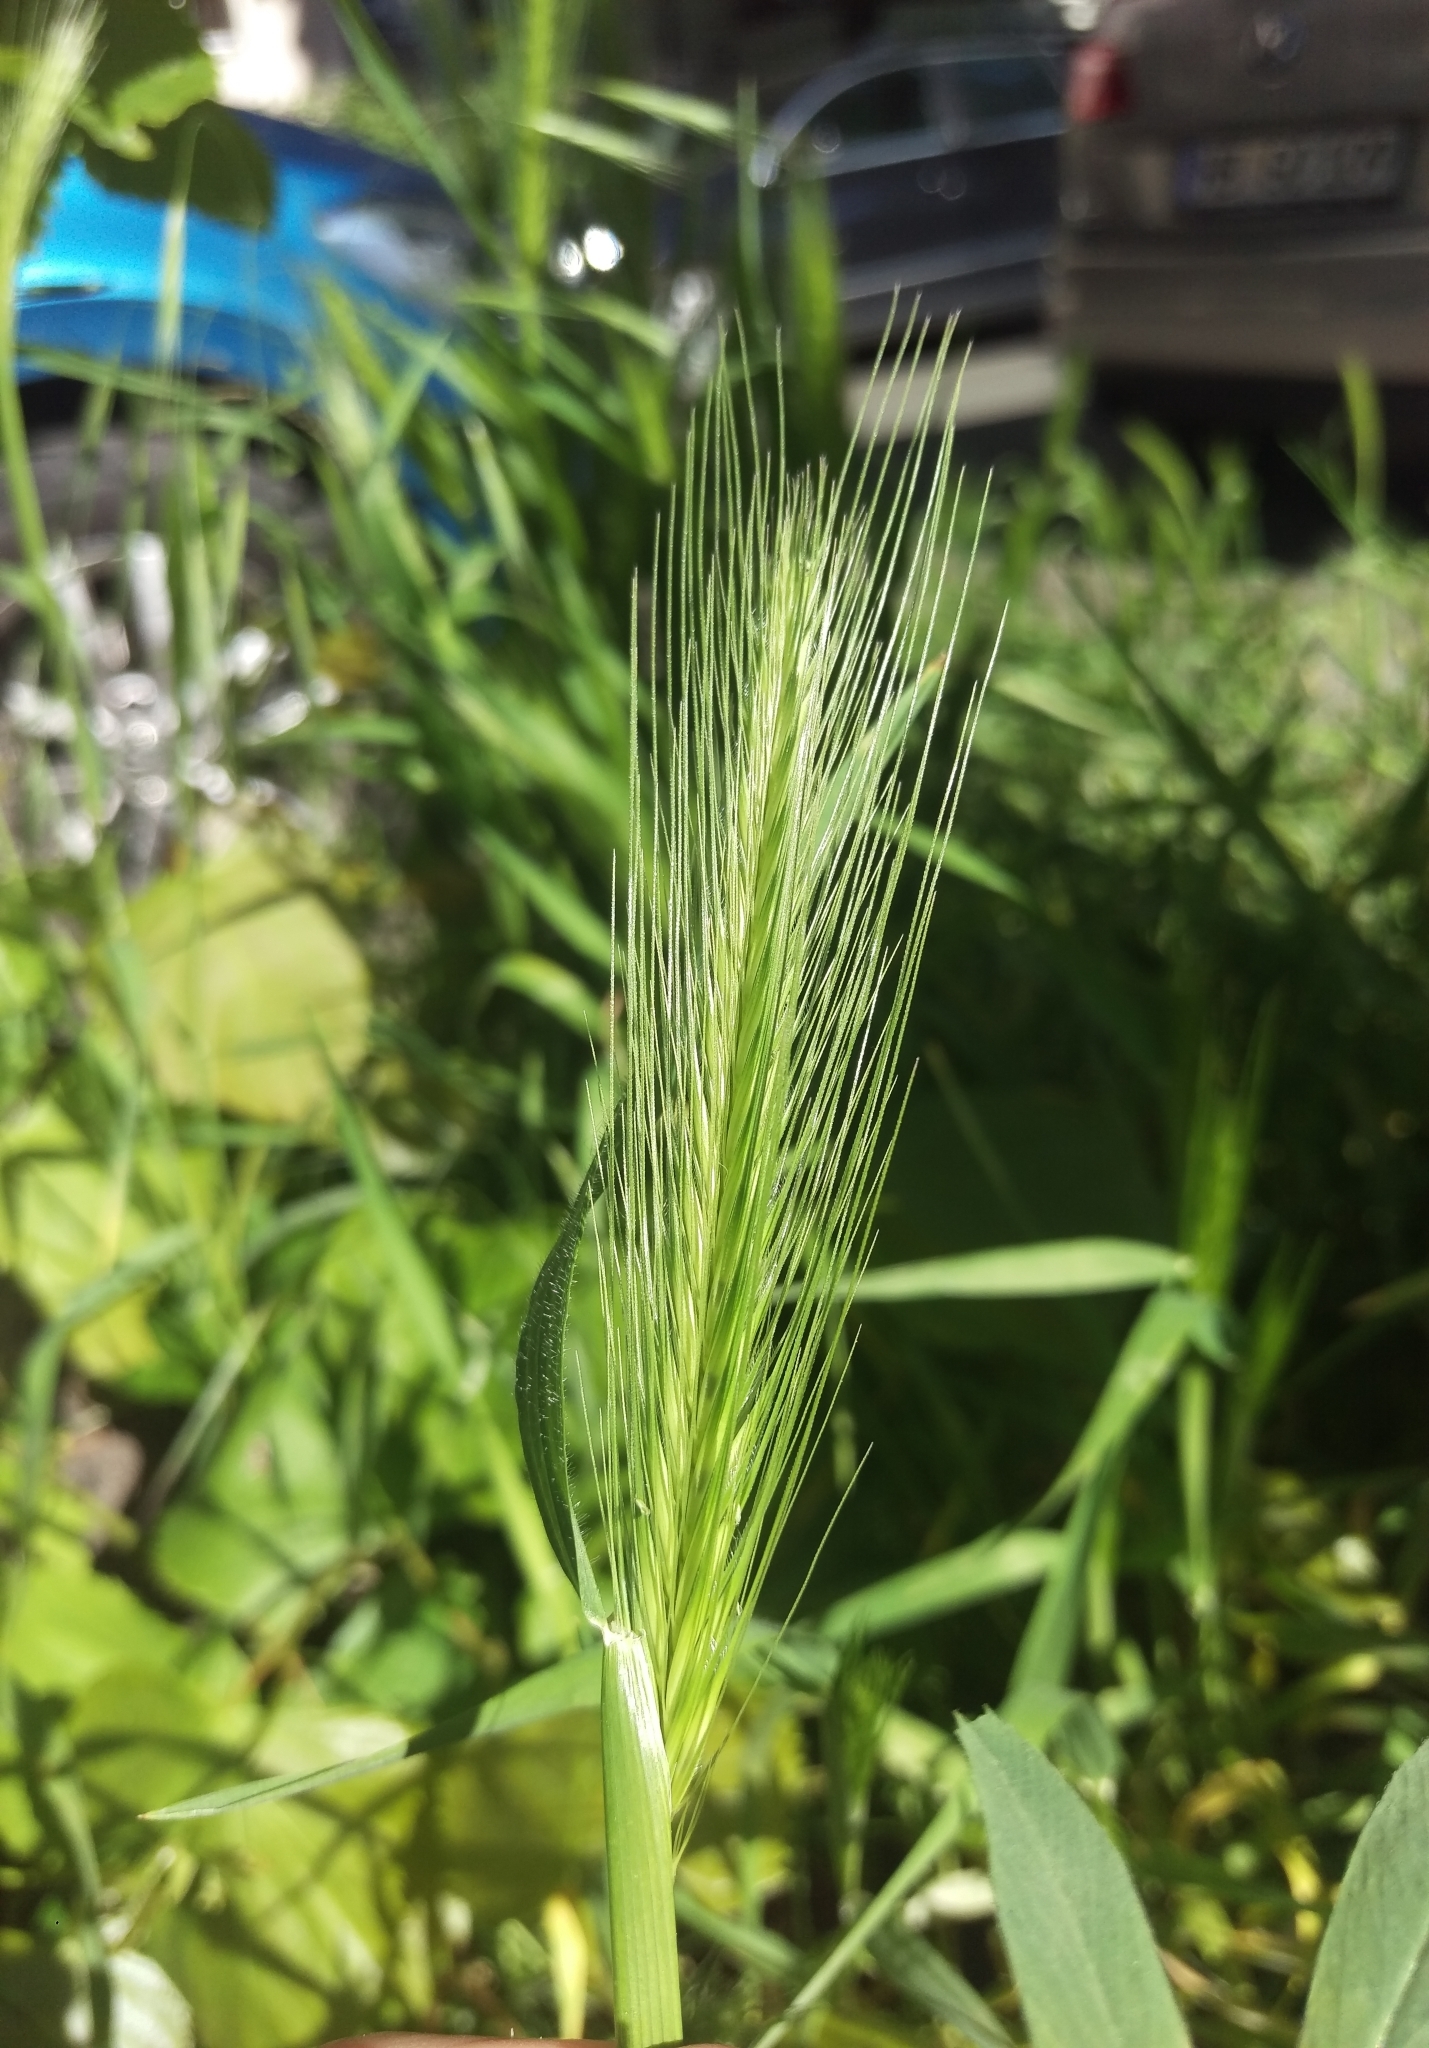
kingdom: Plantae
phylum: Tracheophyta
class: Liliopsida
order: Poales
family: Poaceae
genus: Hordeum
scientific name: Hordeum murinum
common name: Wall barley
